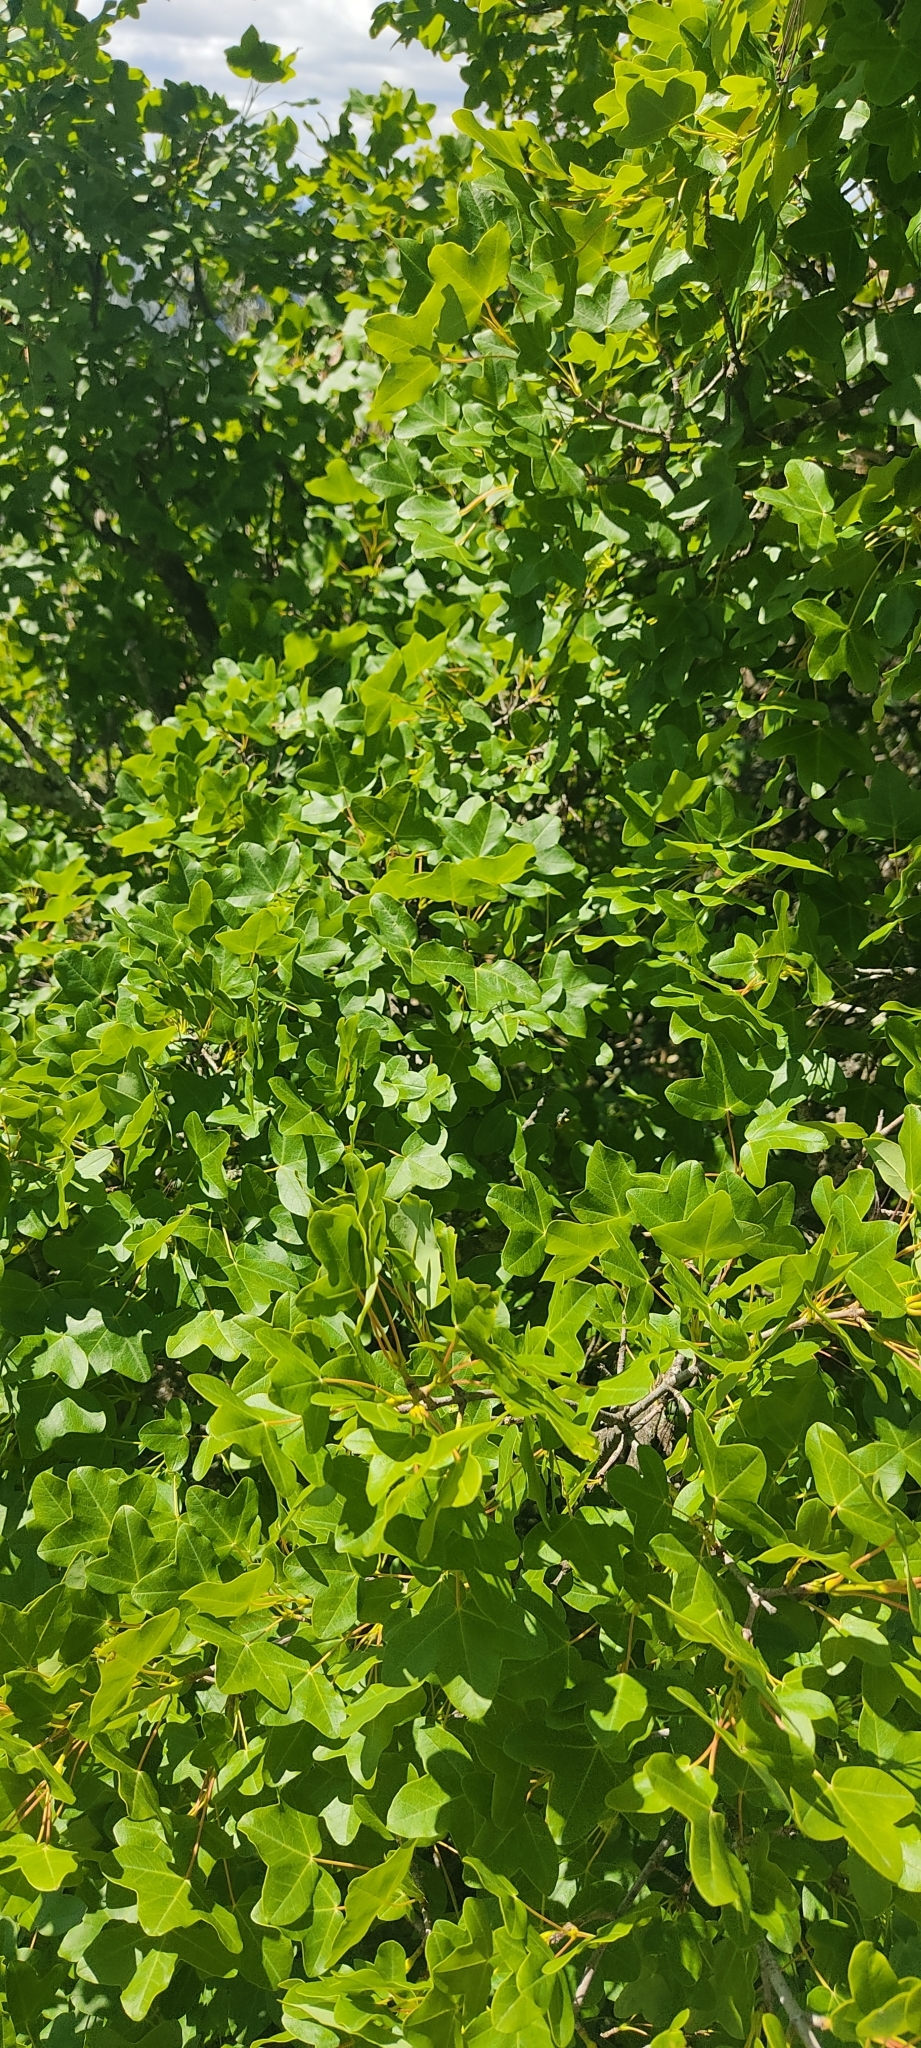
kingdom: Plantae
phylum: Tracheophyta
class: Magnoliopsida
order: Sapindales
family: Sapindaceae
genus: Acer
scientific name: Acer monspessulanum
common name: Montpellier maple
